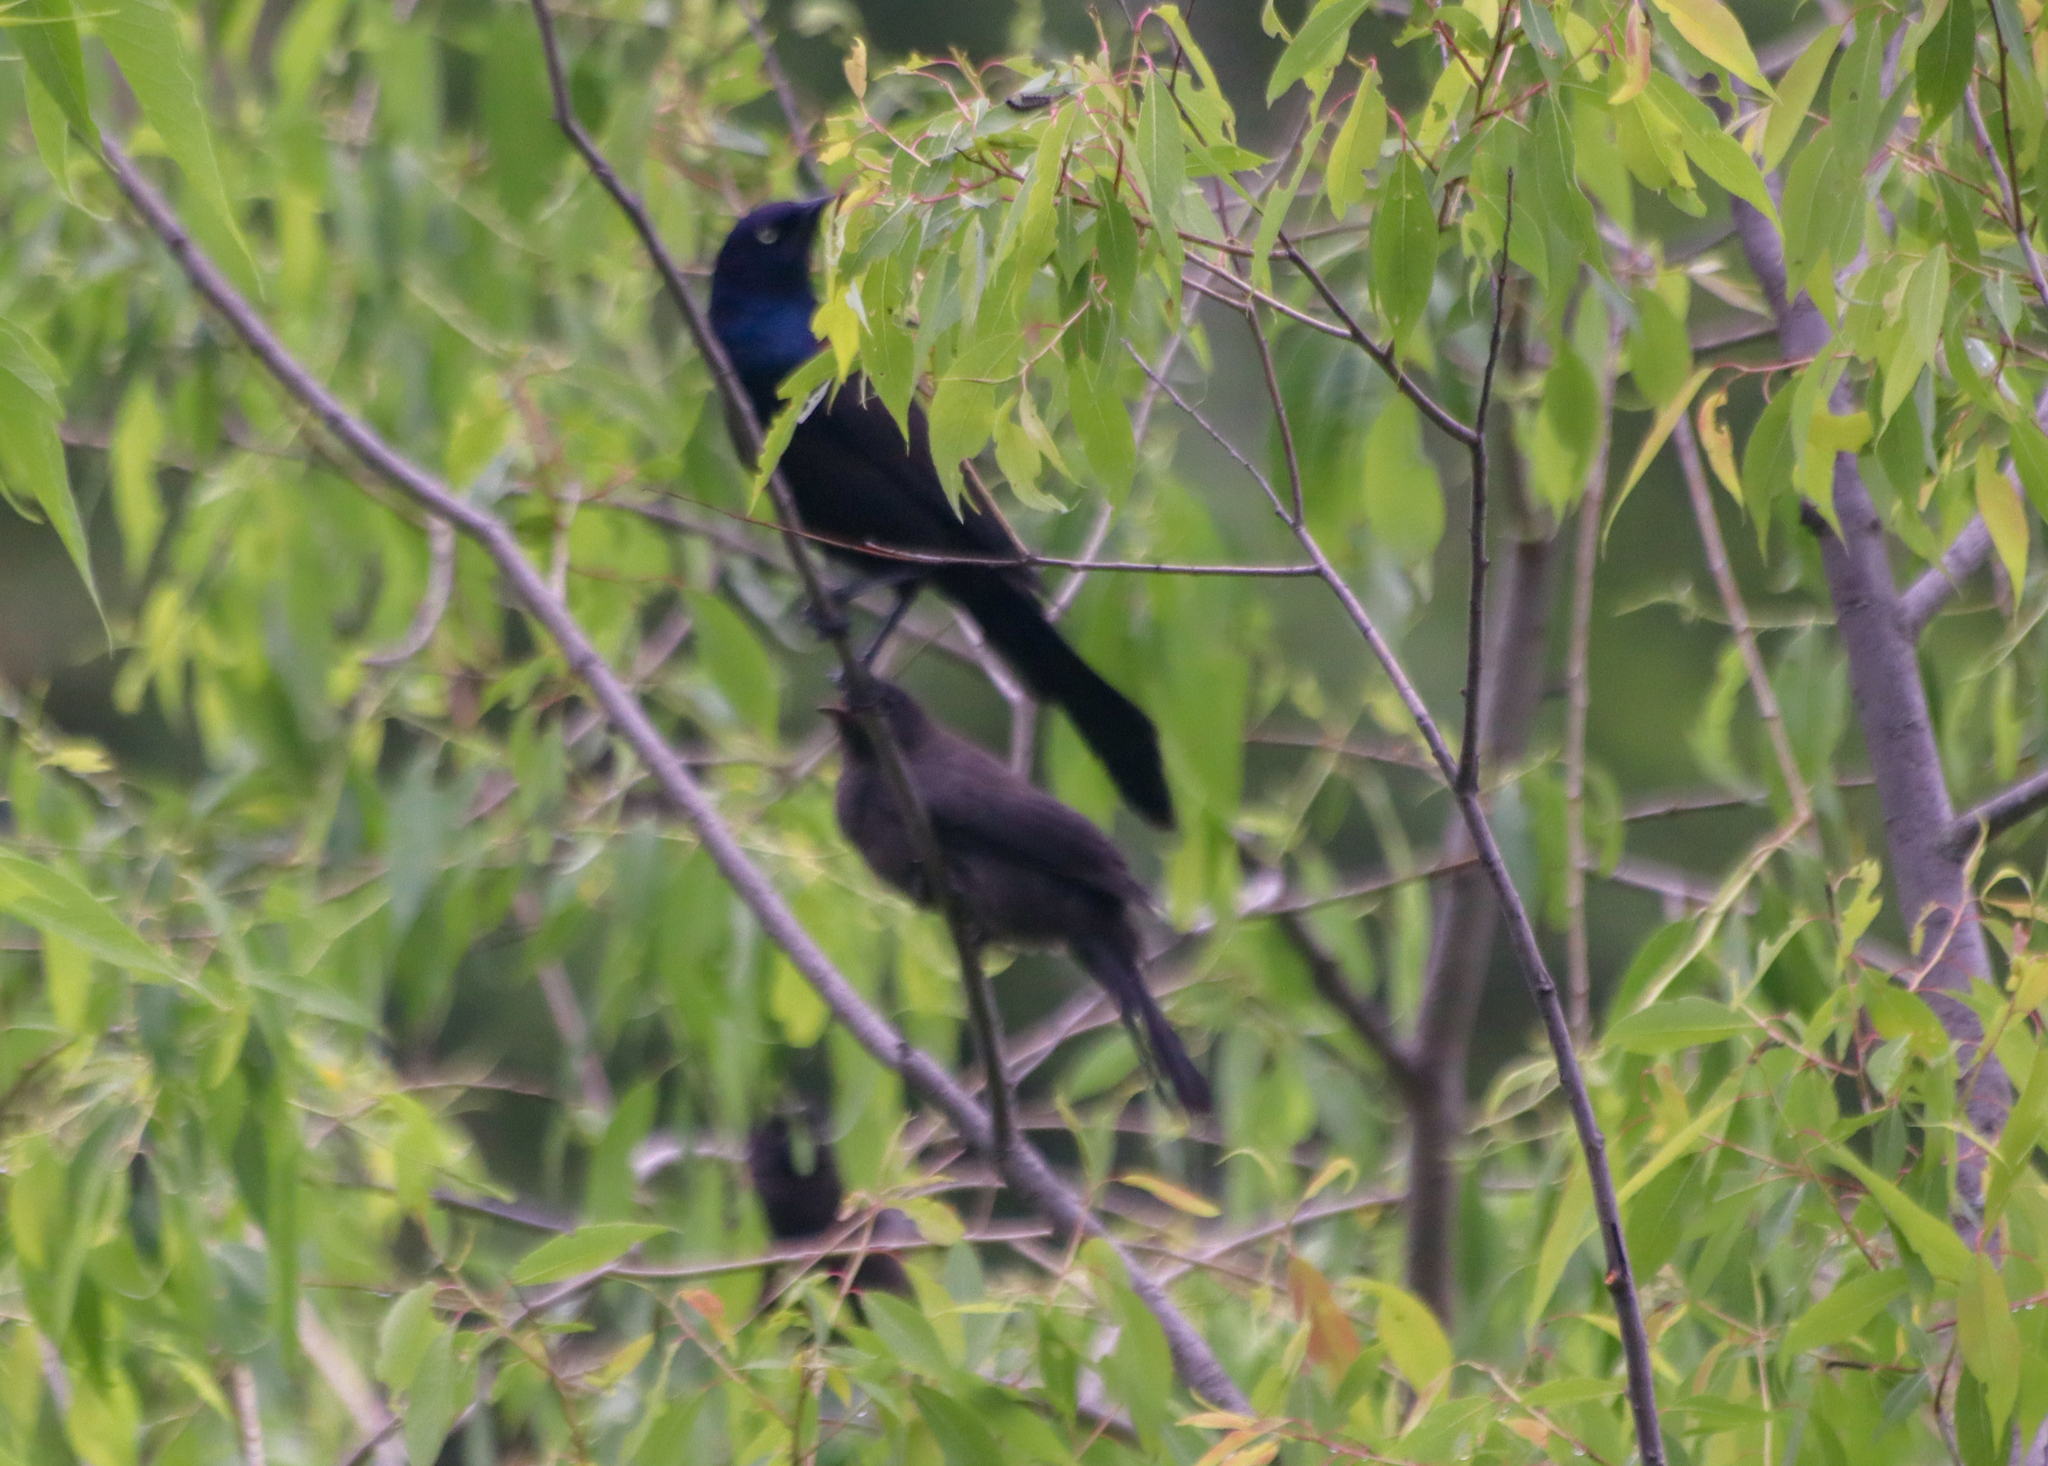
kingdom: Animalia
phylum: Chordata
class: Aves
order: Passeriformes
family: Icteridae
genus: Quiscalus
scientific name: Quiscalus quiscula
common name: Common grackle
